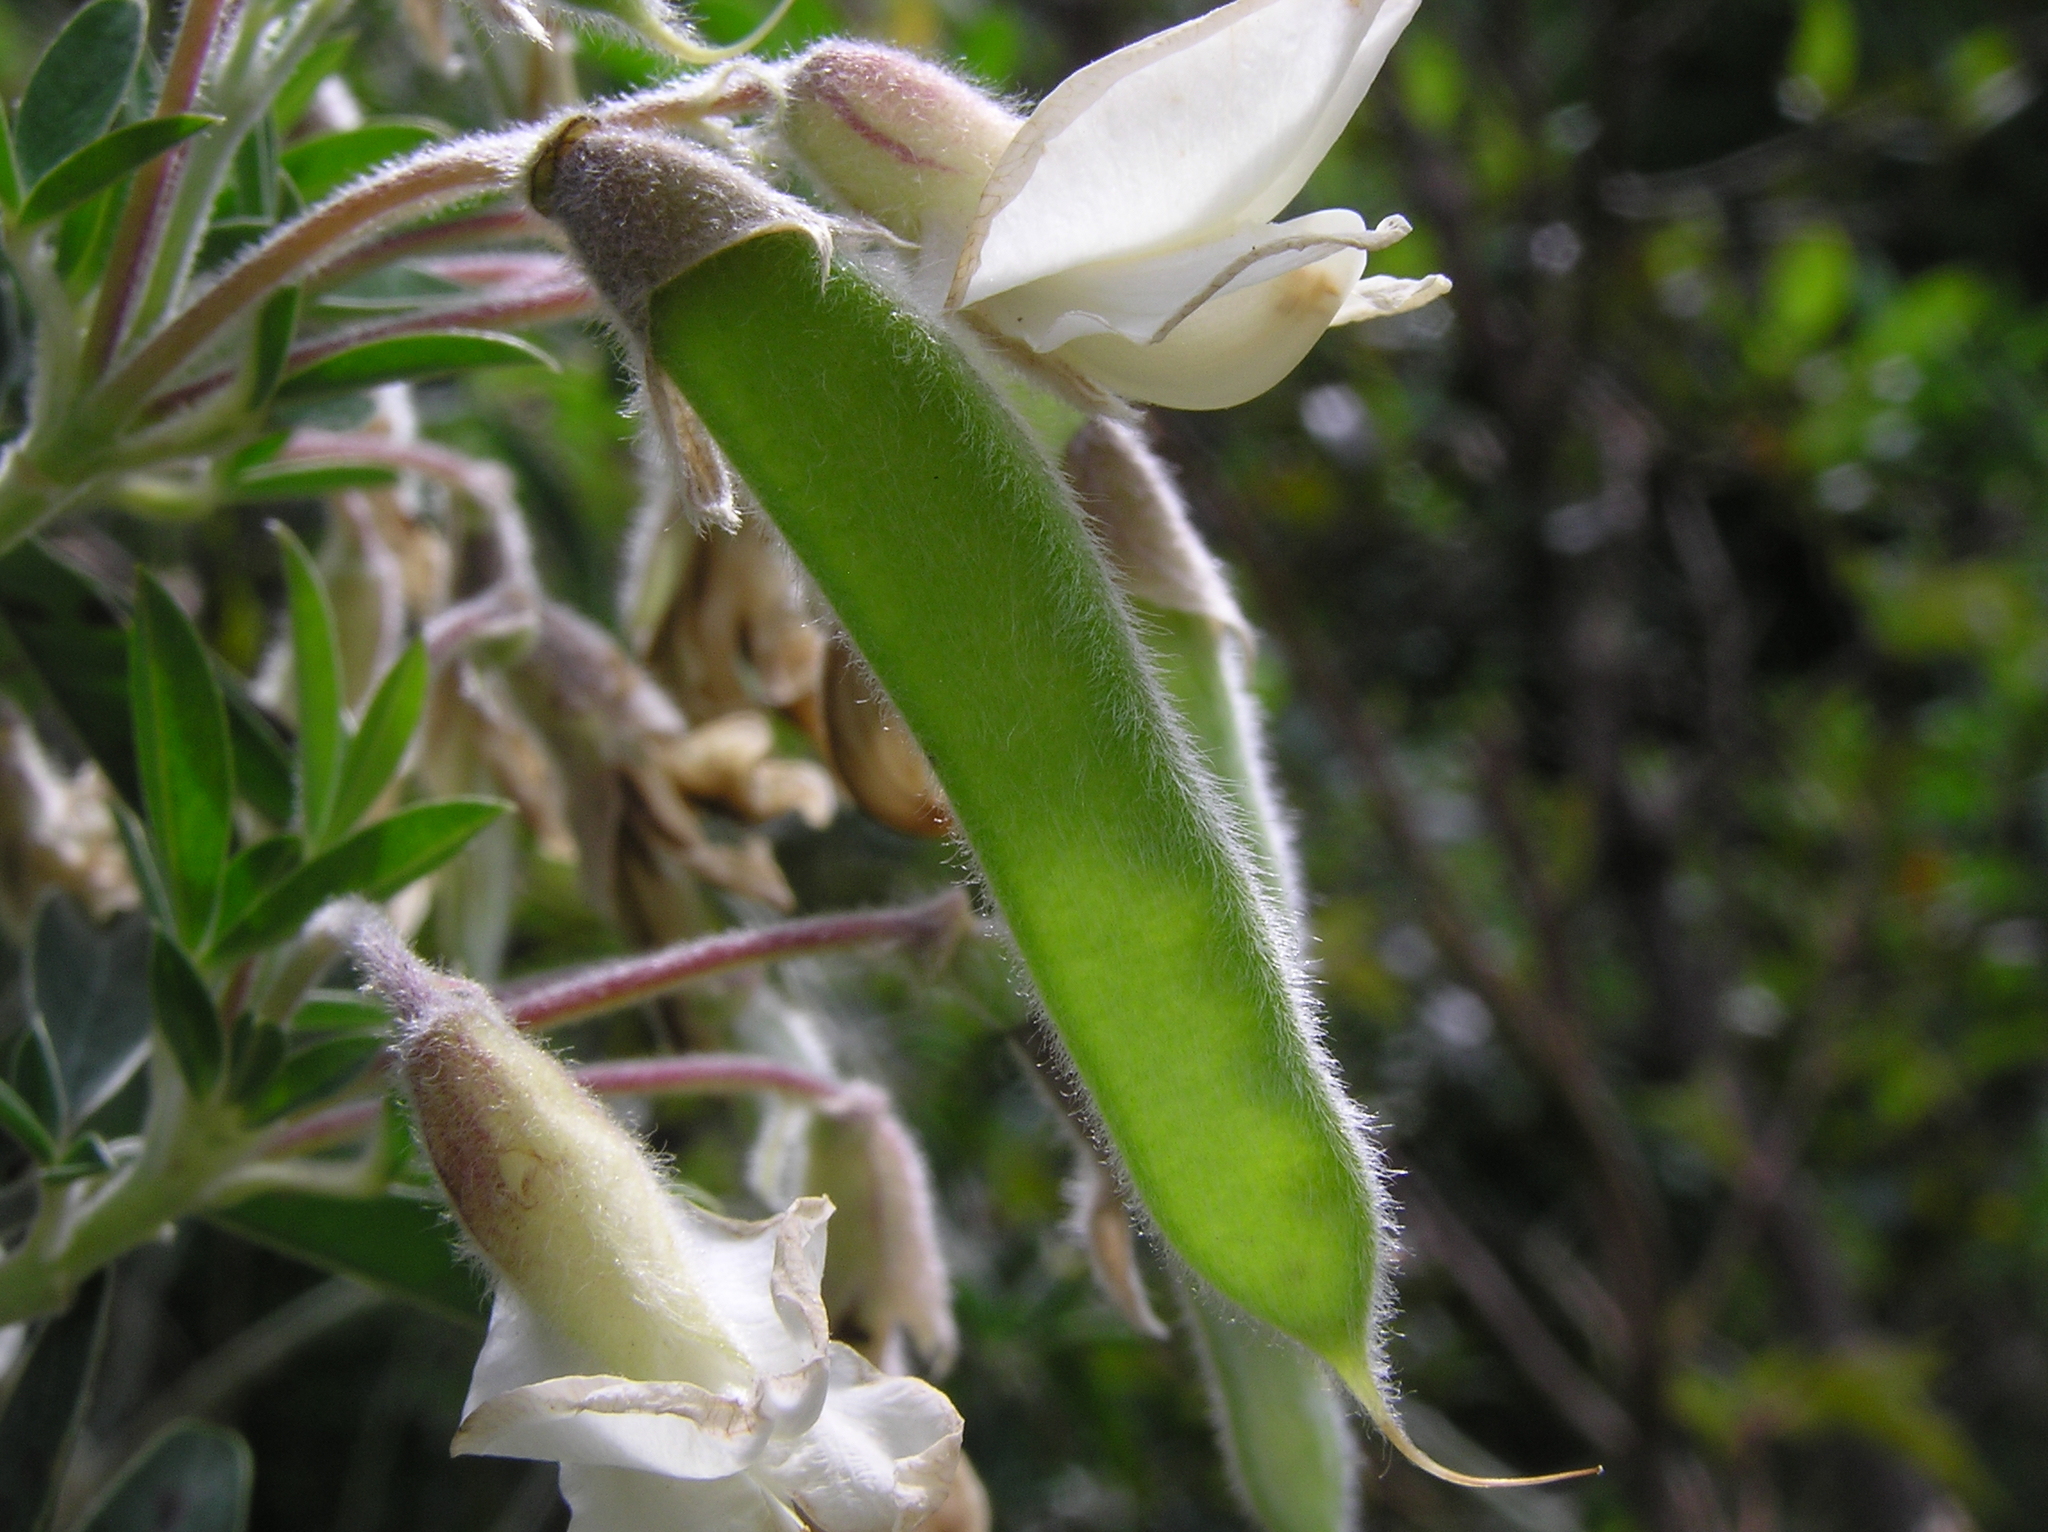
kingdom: Plantae
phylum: Tracheophyta
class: Magnoliopsida
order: Fabales
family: Fabaceae
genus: Chamaecytisus
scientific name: Chamaecytisus prolifer
